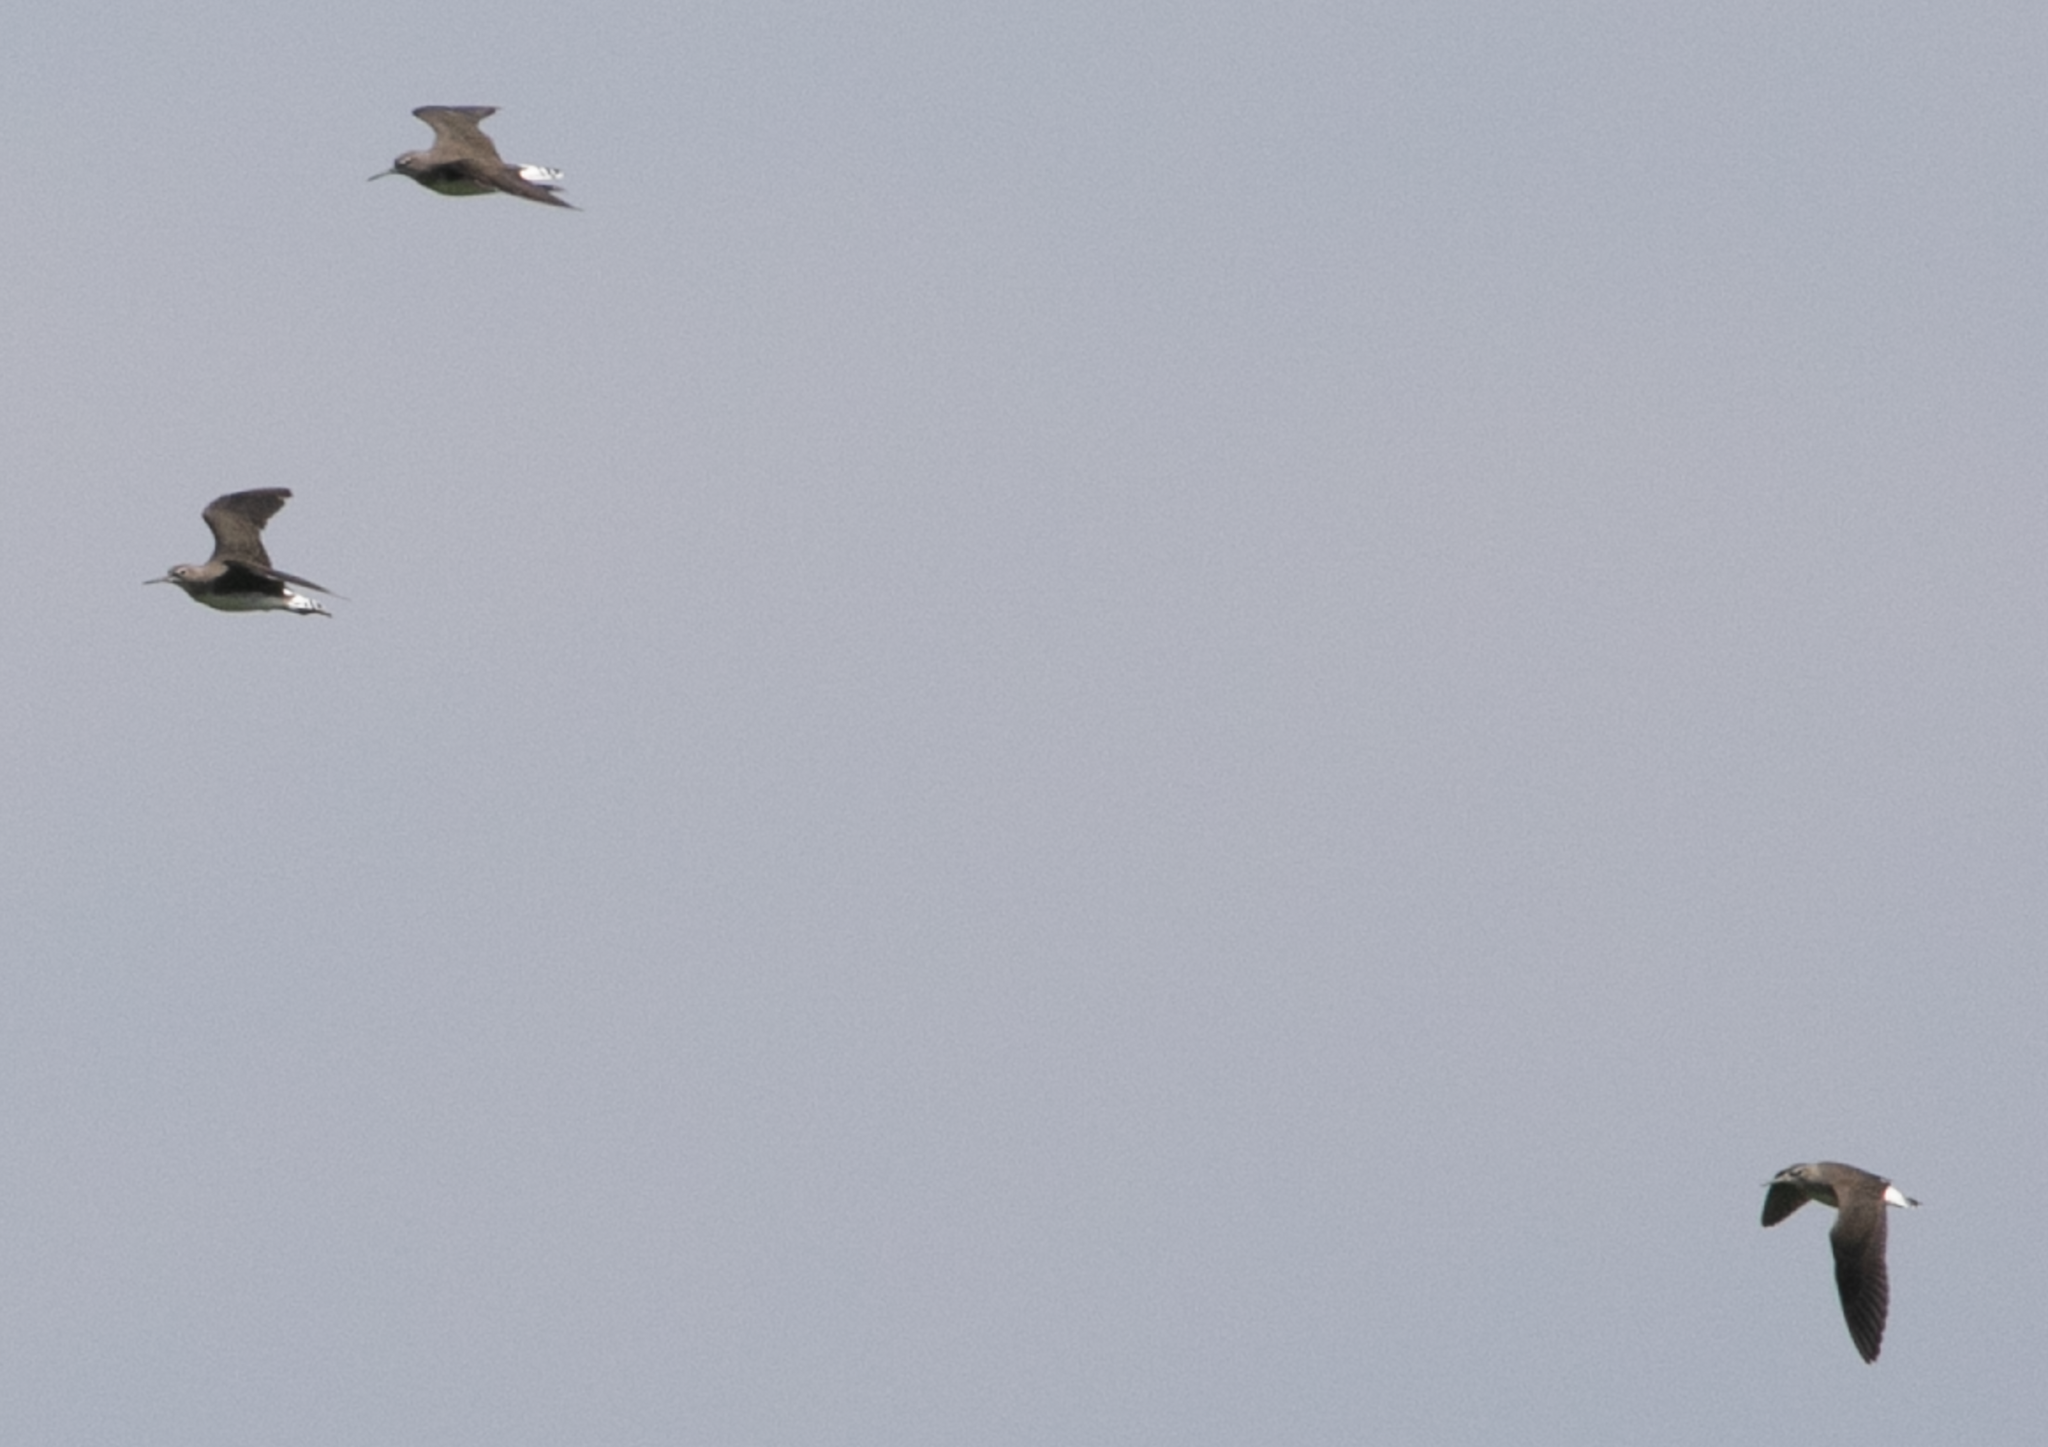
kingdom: Animalia
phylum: Chordata
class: Aves
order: Charadriiformes
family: Scolopacidae
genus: Tringa
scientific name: Tringa ochropus
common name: Green sandpiper
